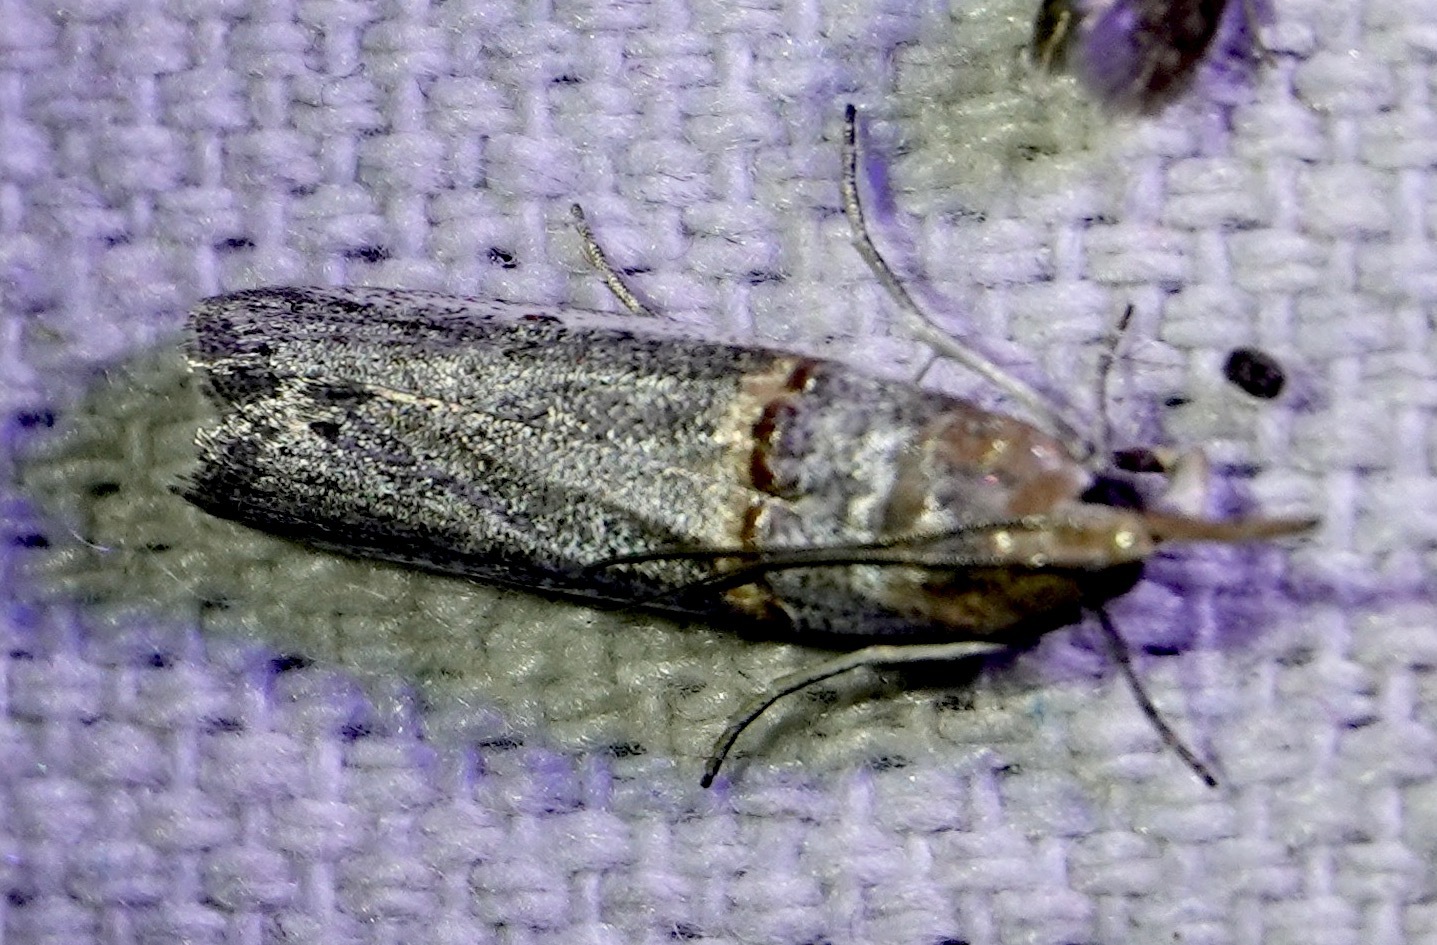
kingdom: Animalia
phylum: Arthropoda
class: Insecta
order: Lepidoptera
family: Pyralidae
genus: Etiella
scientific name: Etiella zinckenella
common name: Gold-banded etiella moth
